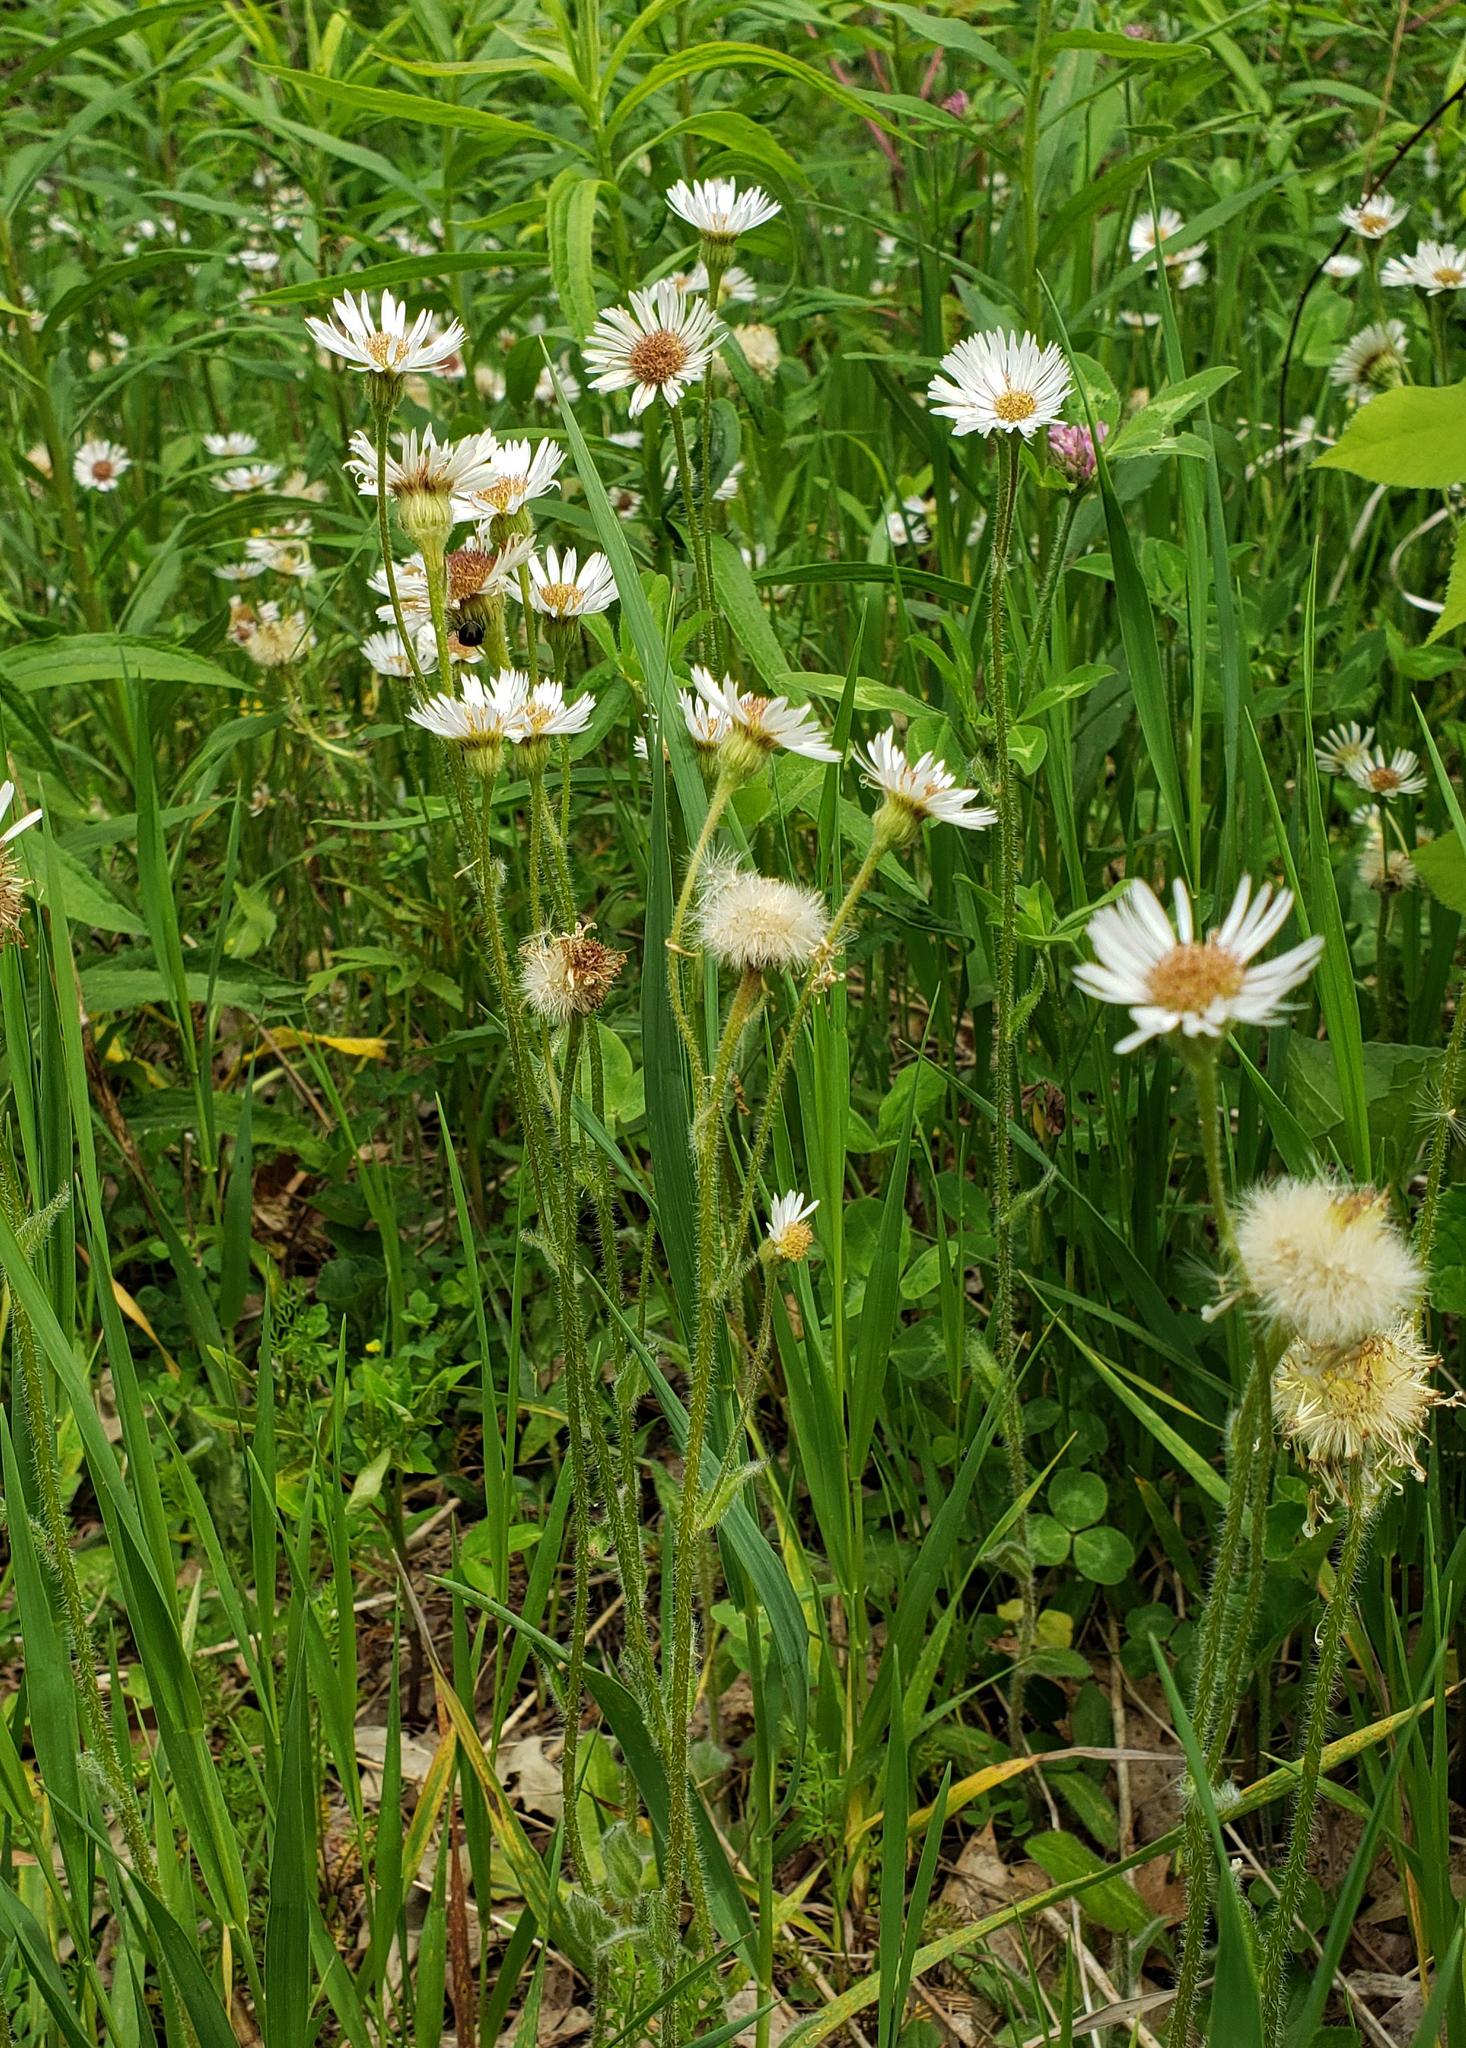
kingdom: Plantae
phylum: Tracheophyta
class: Magnoliopsida
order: Asterales
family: Asteraceae
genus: Erigeron
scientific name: Erigeron pulchellus
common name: Hairy fleabane
